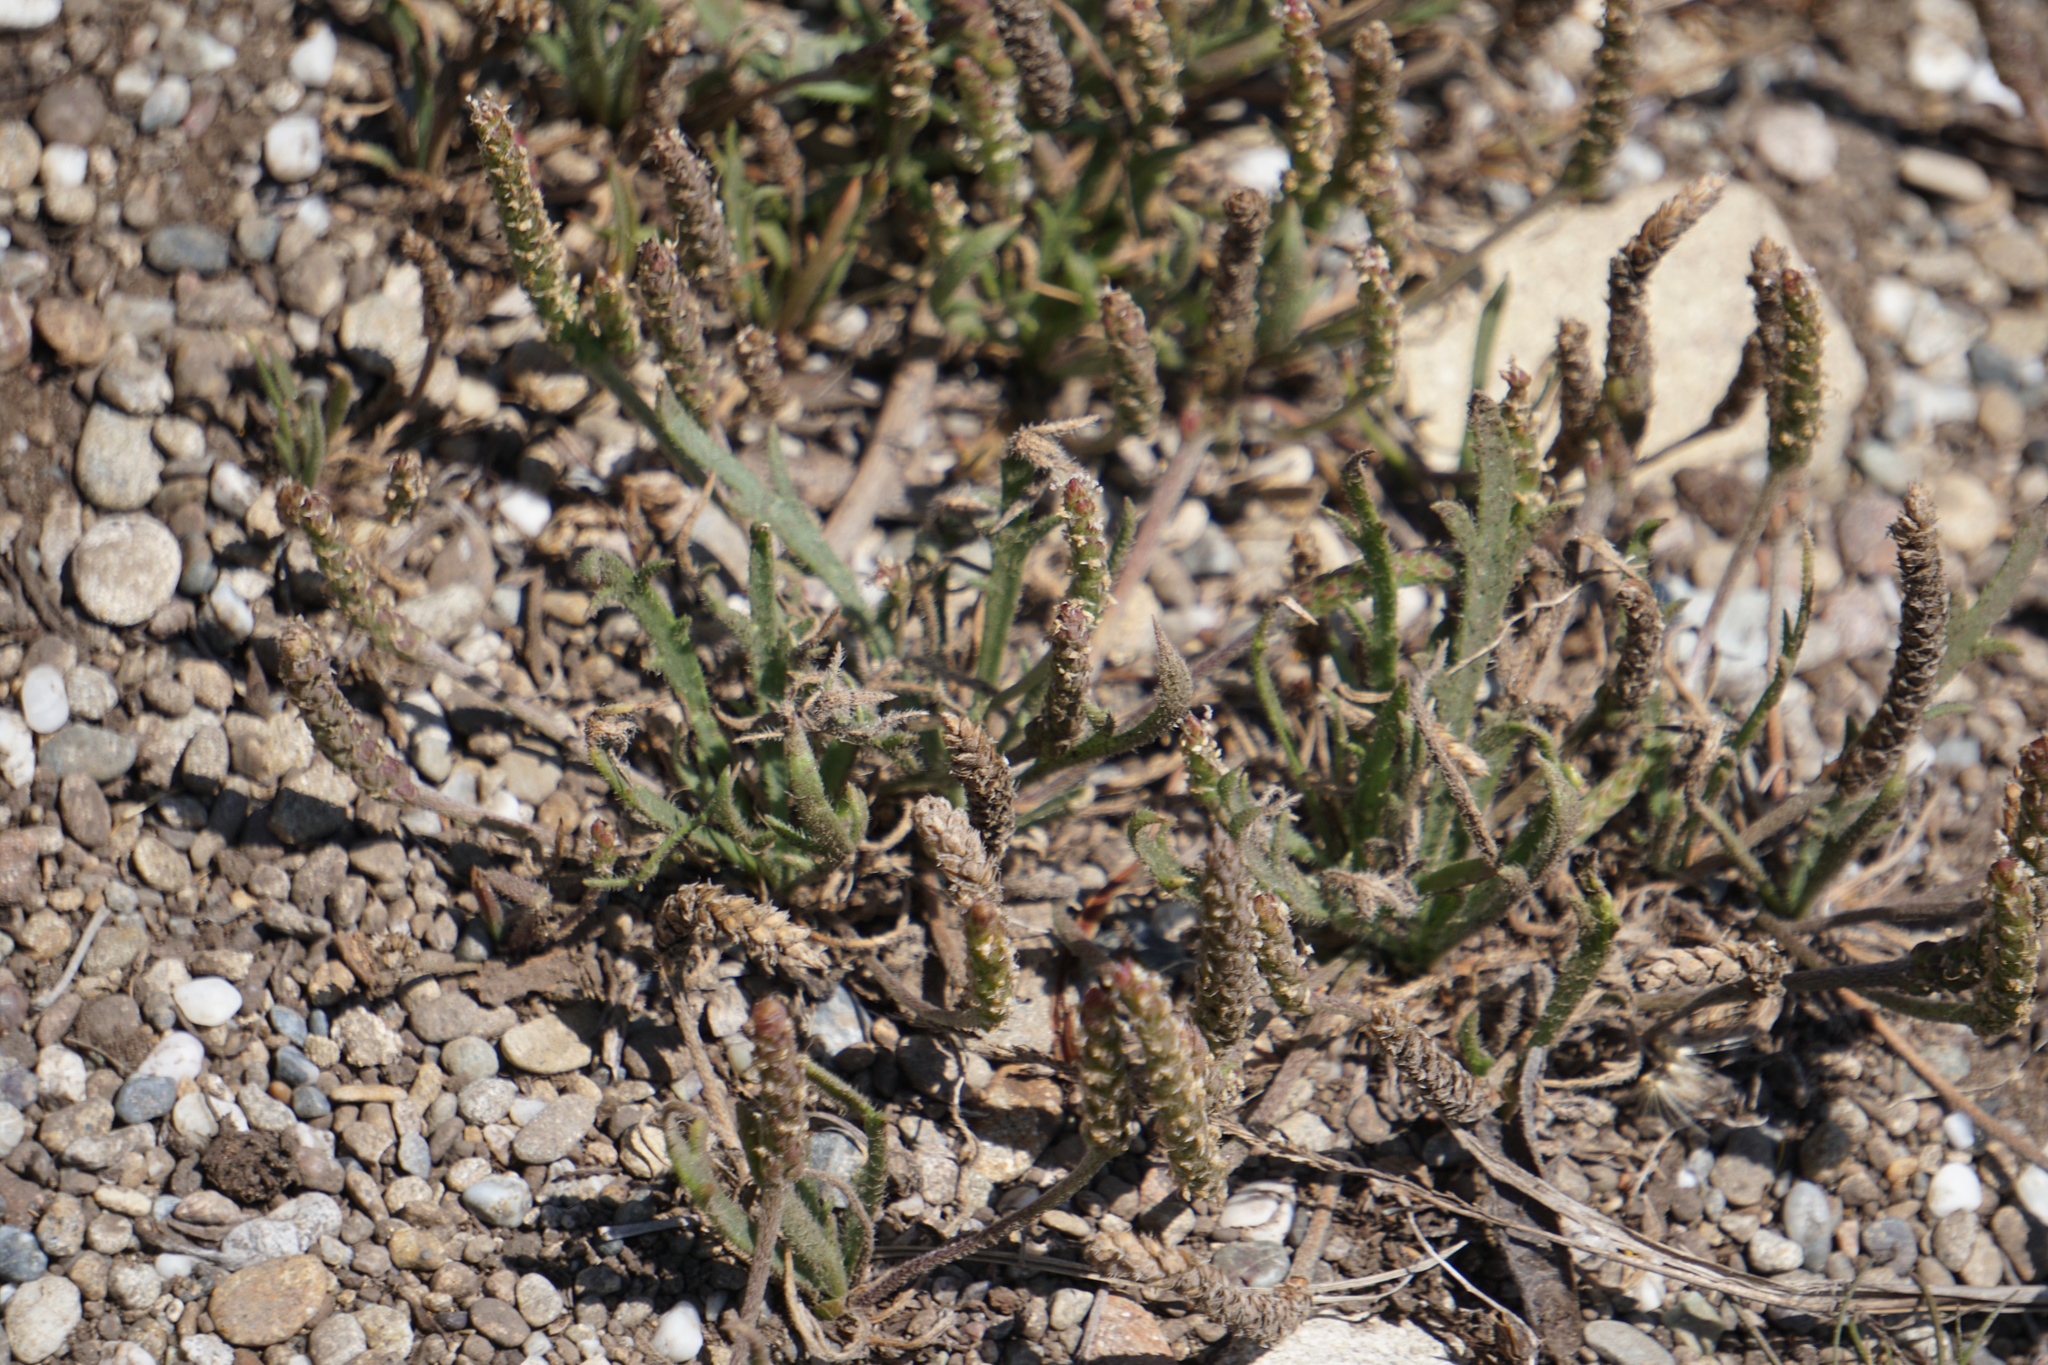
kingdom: Plantae
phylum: Tracheophyta
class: Magnoliopsida
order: Lamiales
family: Plantaginaceae
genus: Plantago
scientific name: Plantago coronopus
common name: Buck's-horn plantain
